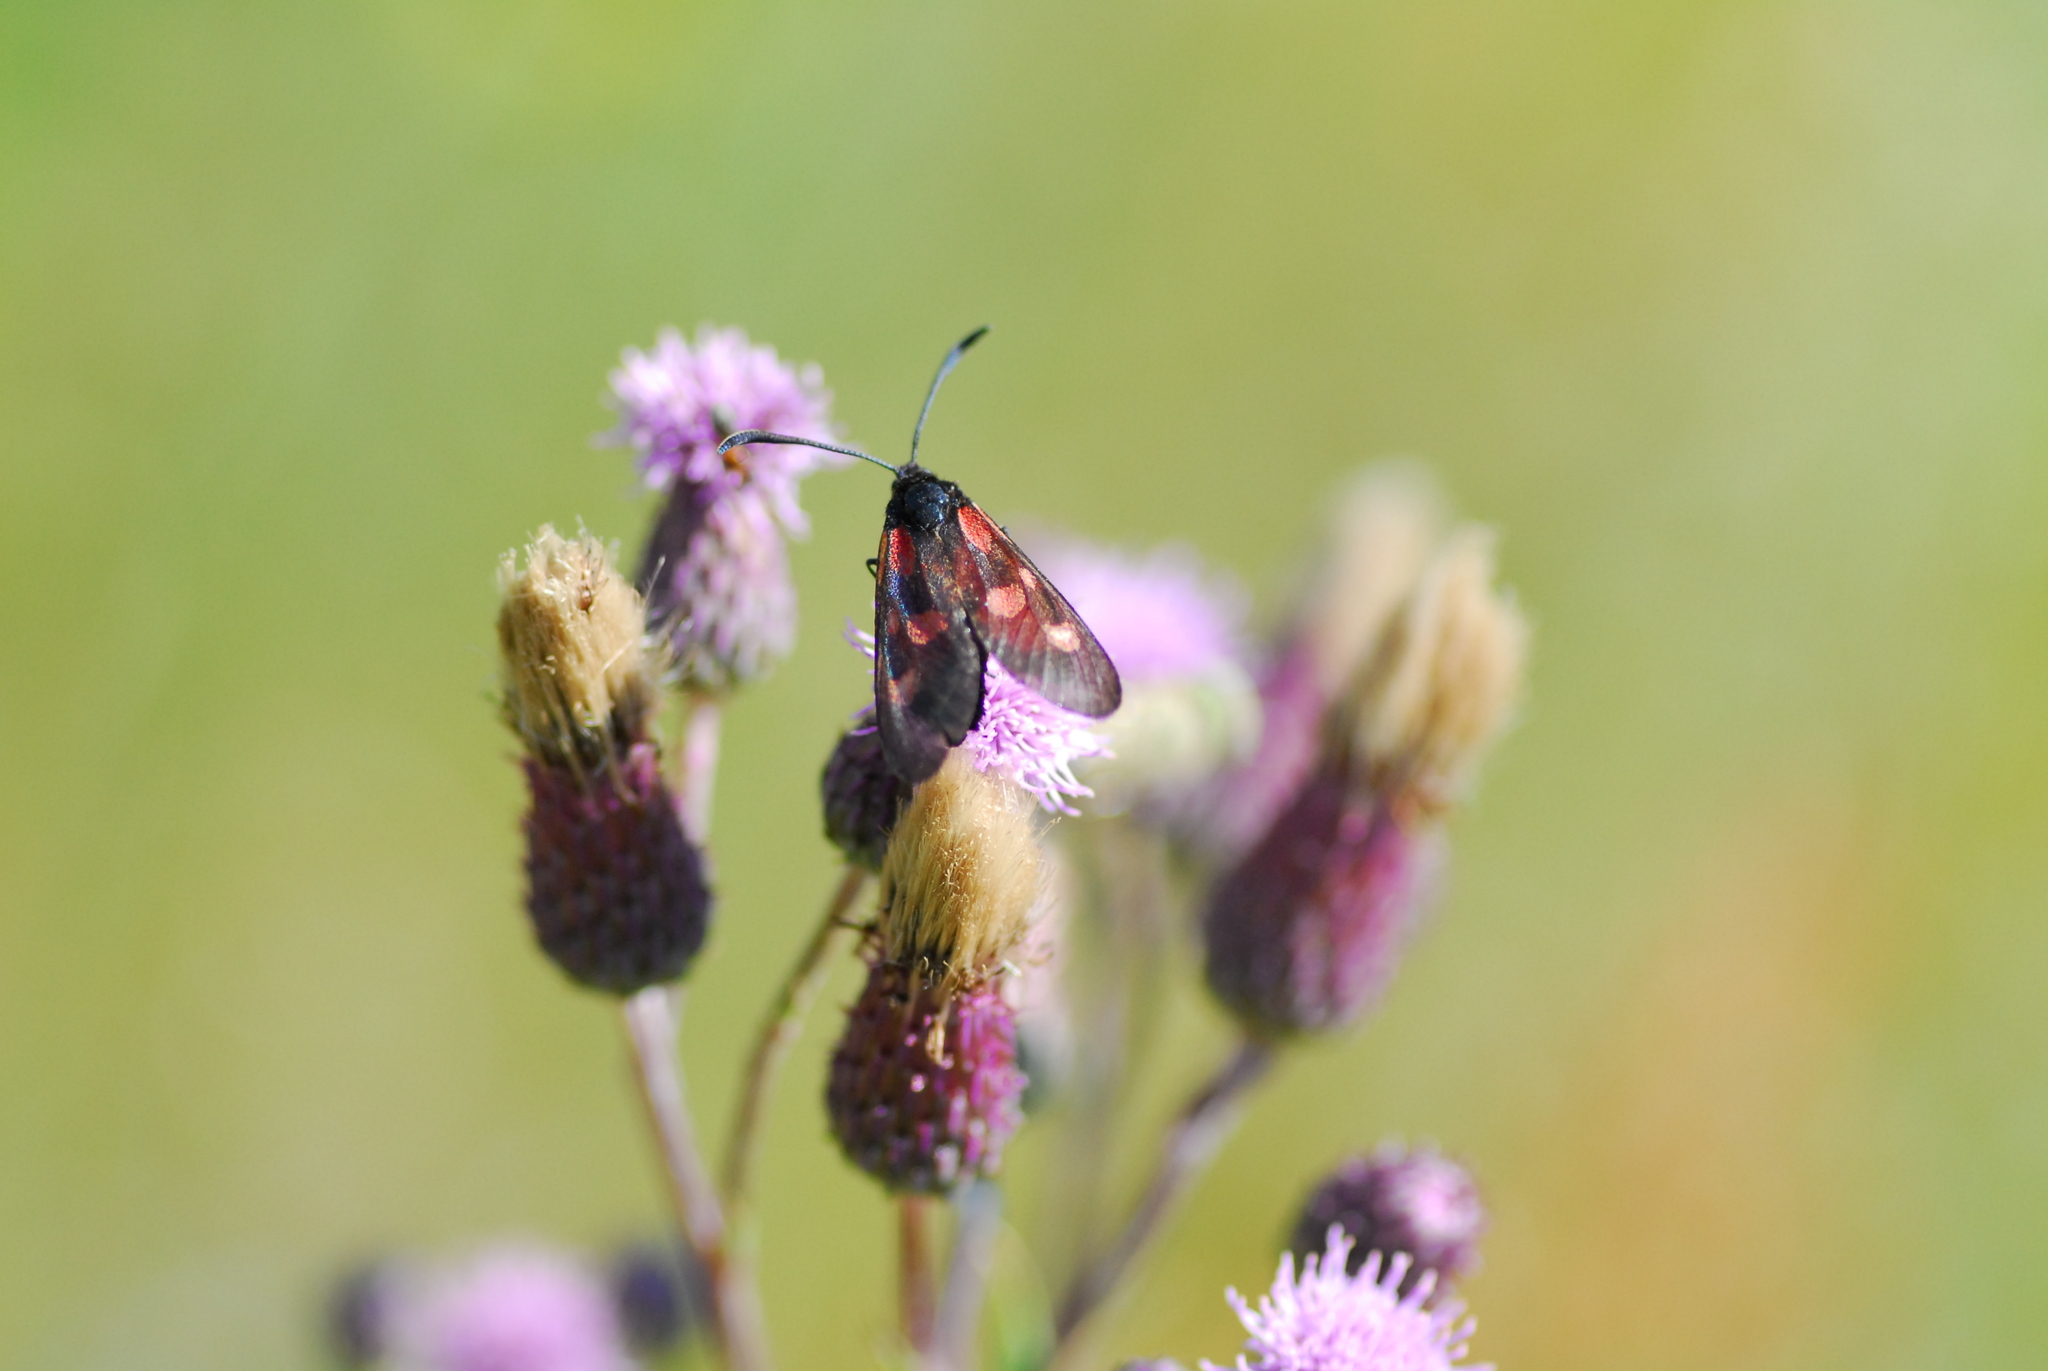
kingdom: Animalia
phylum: Arthropoda
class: Insecta
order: Lepidoptera
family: Zygaenidae
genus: Zygaena
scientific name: Zygaena viciae
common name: New forest burnet
